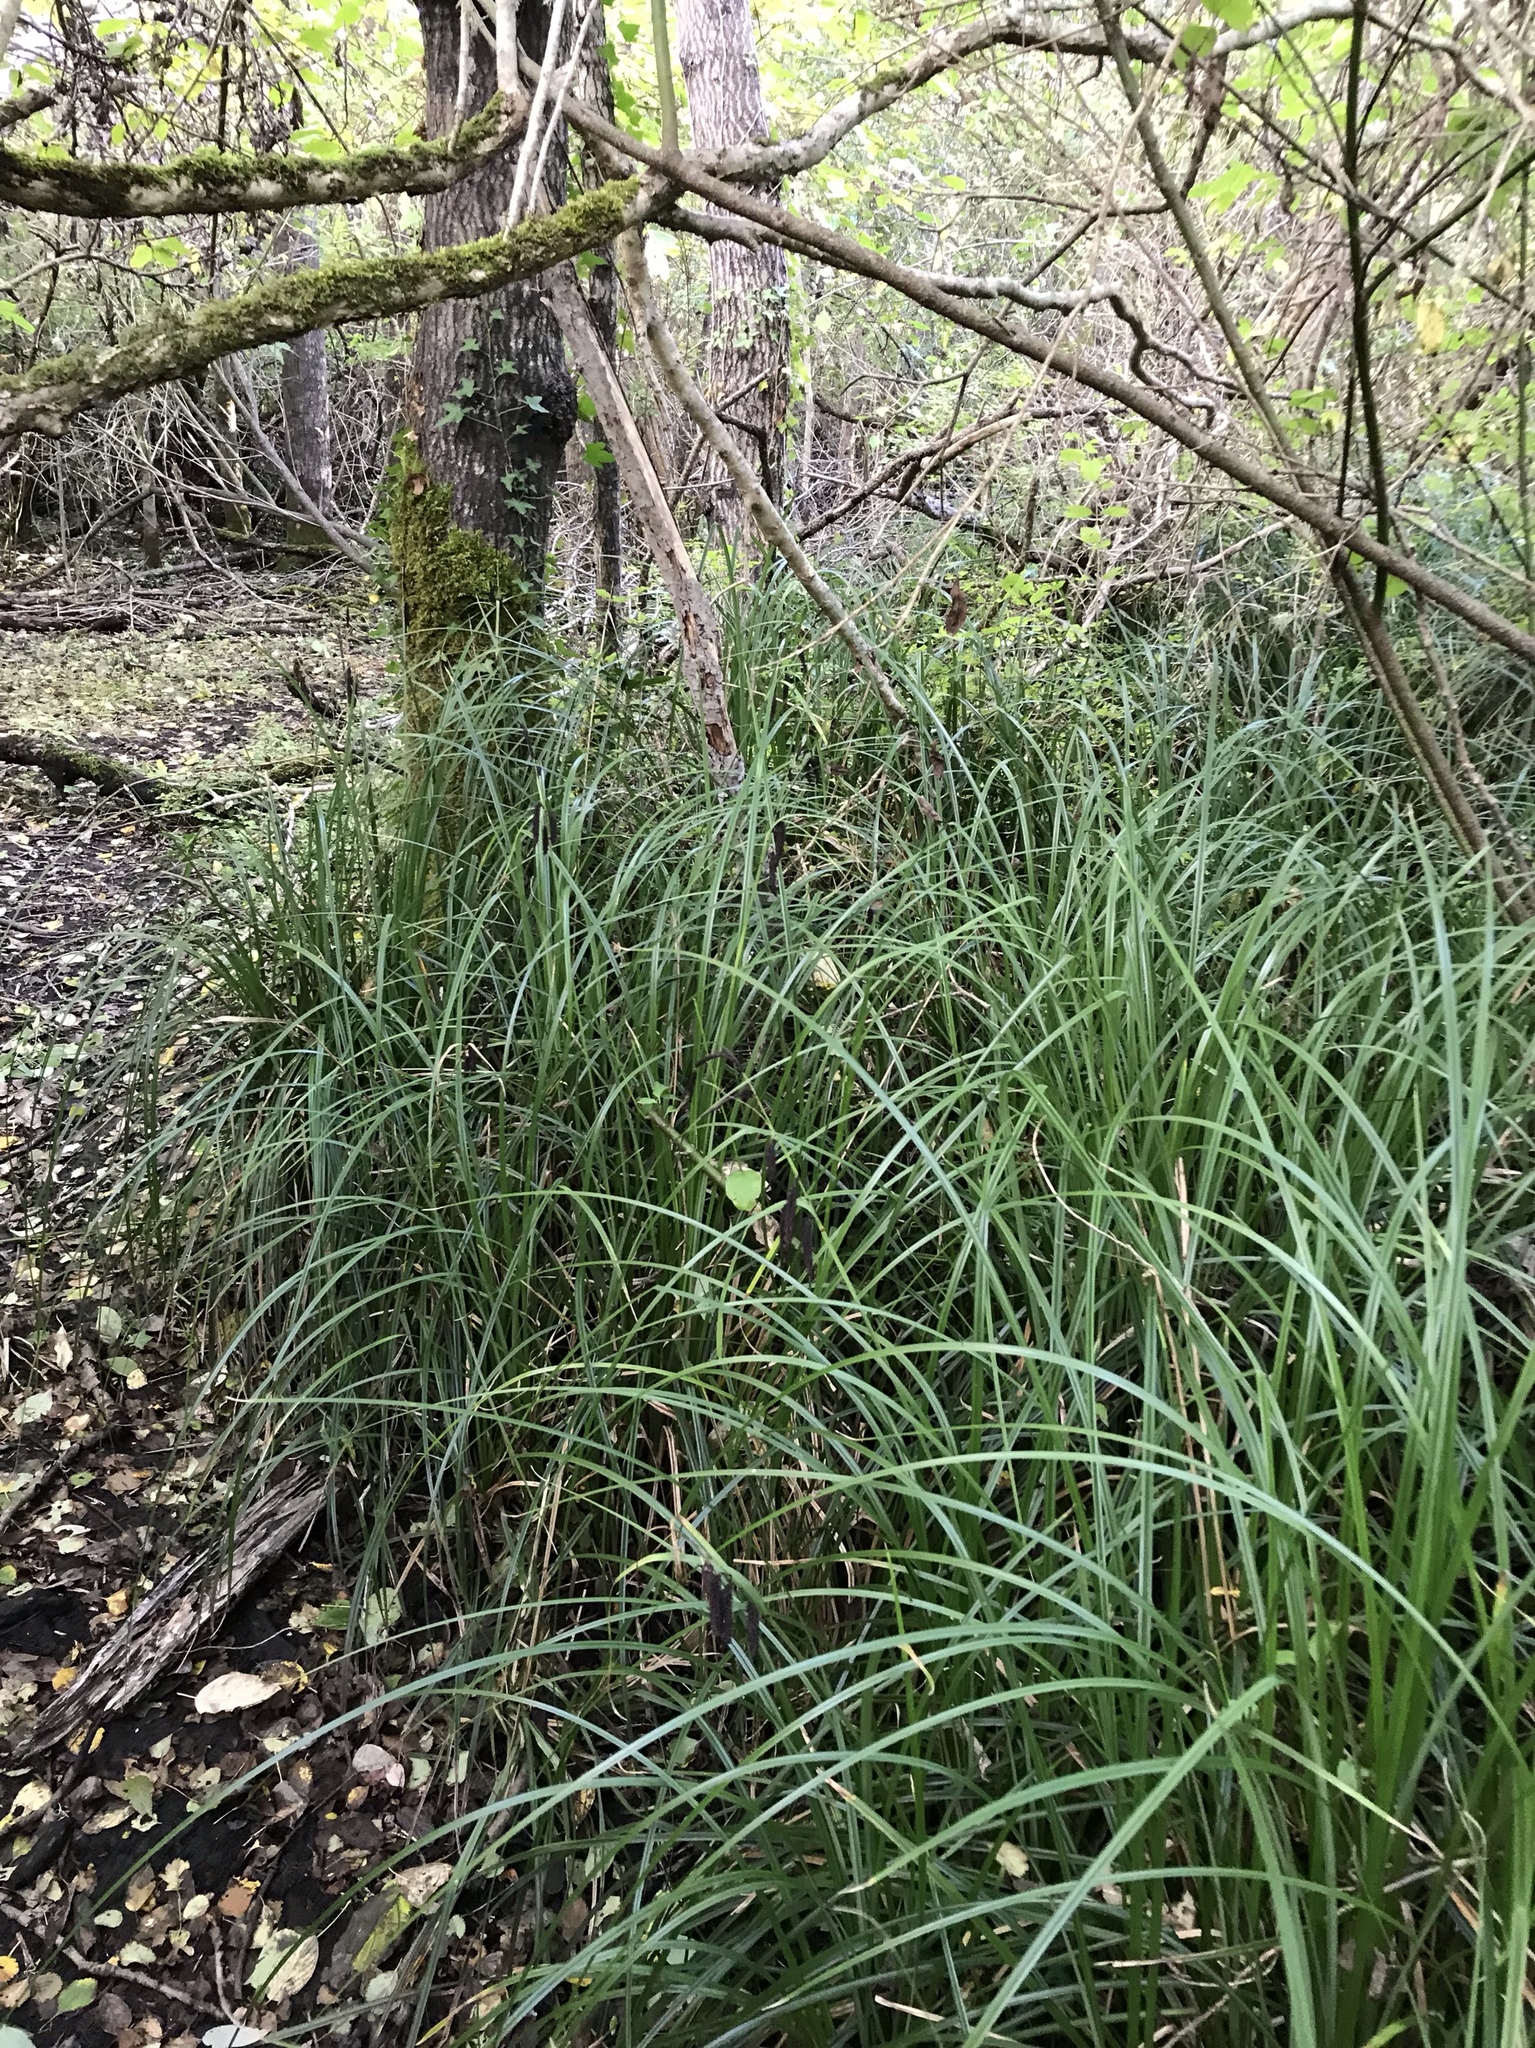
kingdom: Plantae
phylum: Tracheophyta
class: Liliopsida
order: Poales
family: Cyperaceae
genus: Carex
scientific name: Carex obnupta
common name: Slough sedge
